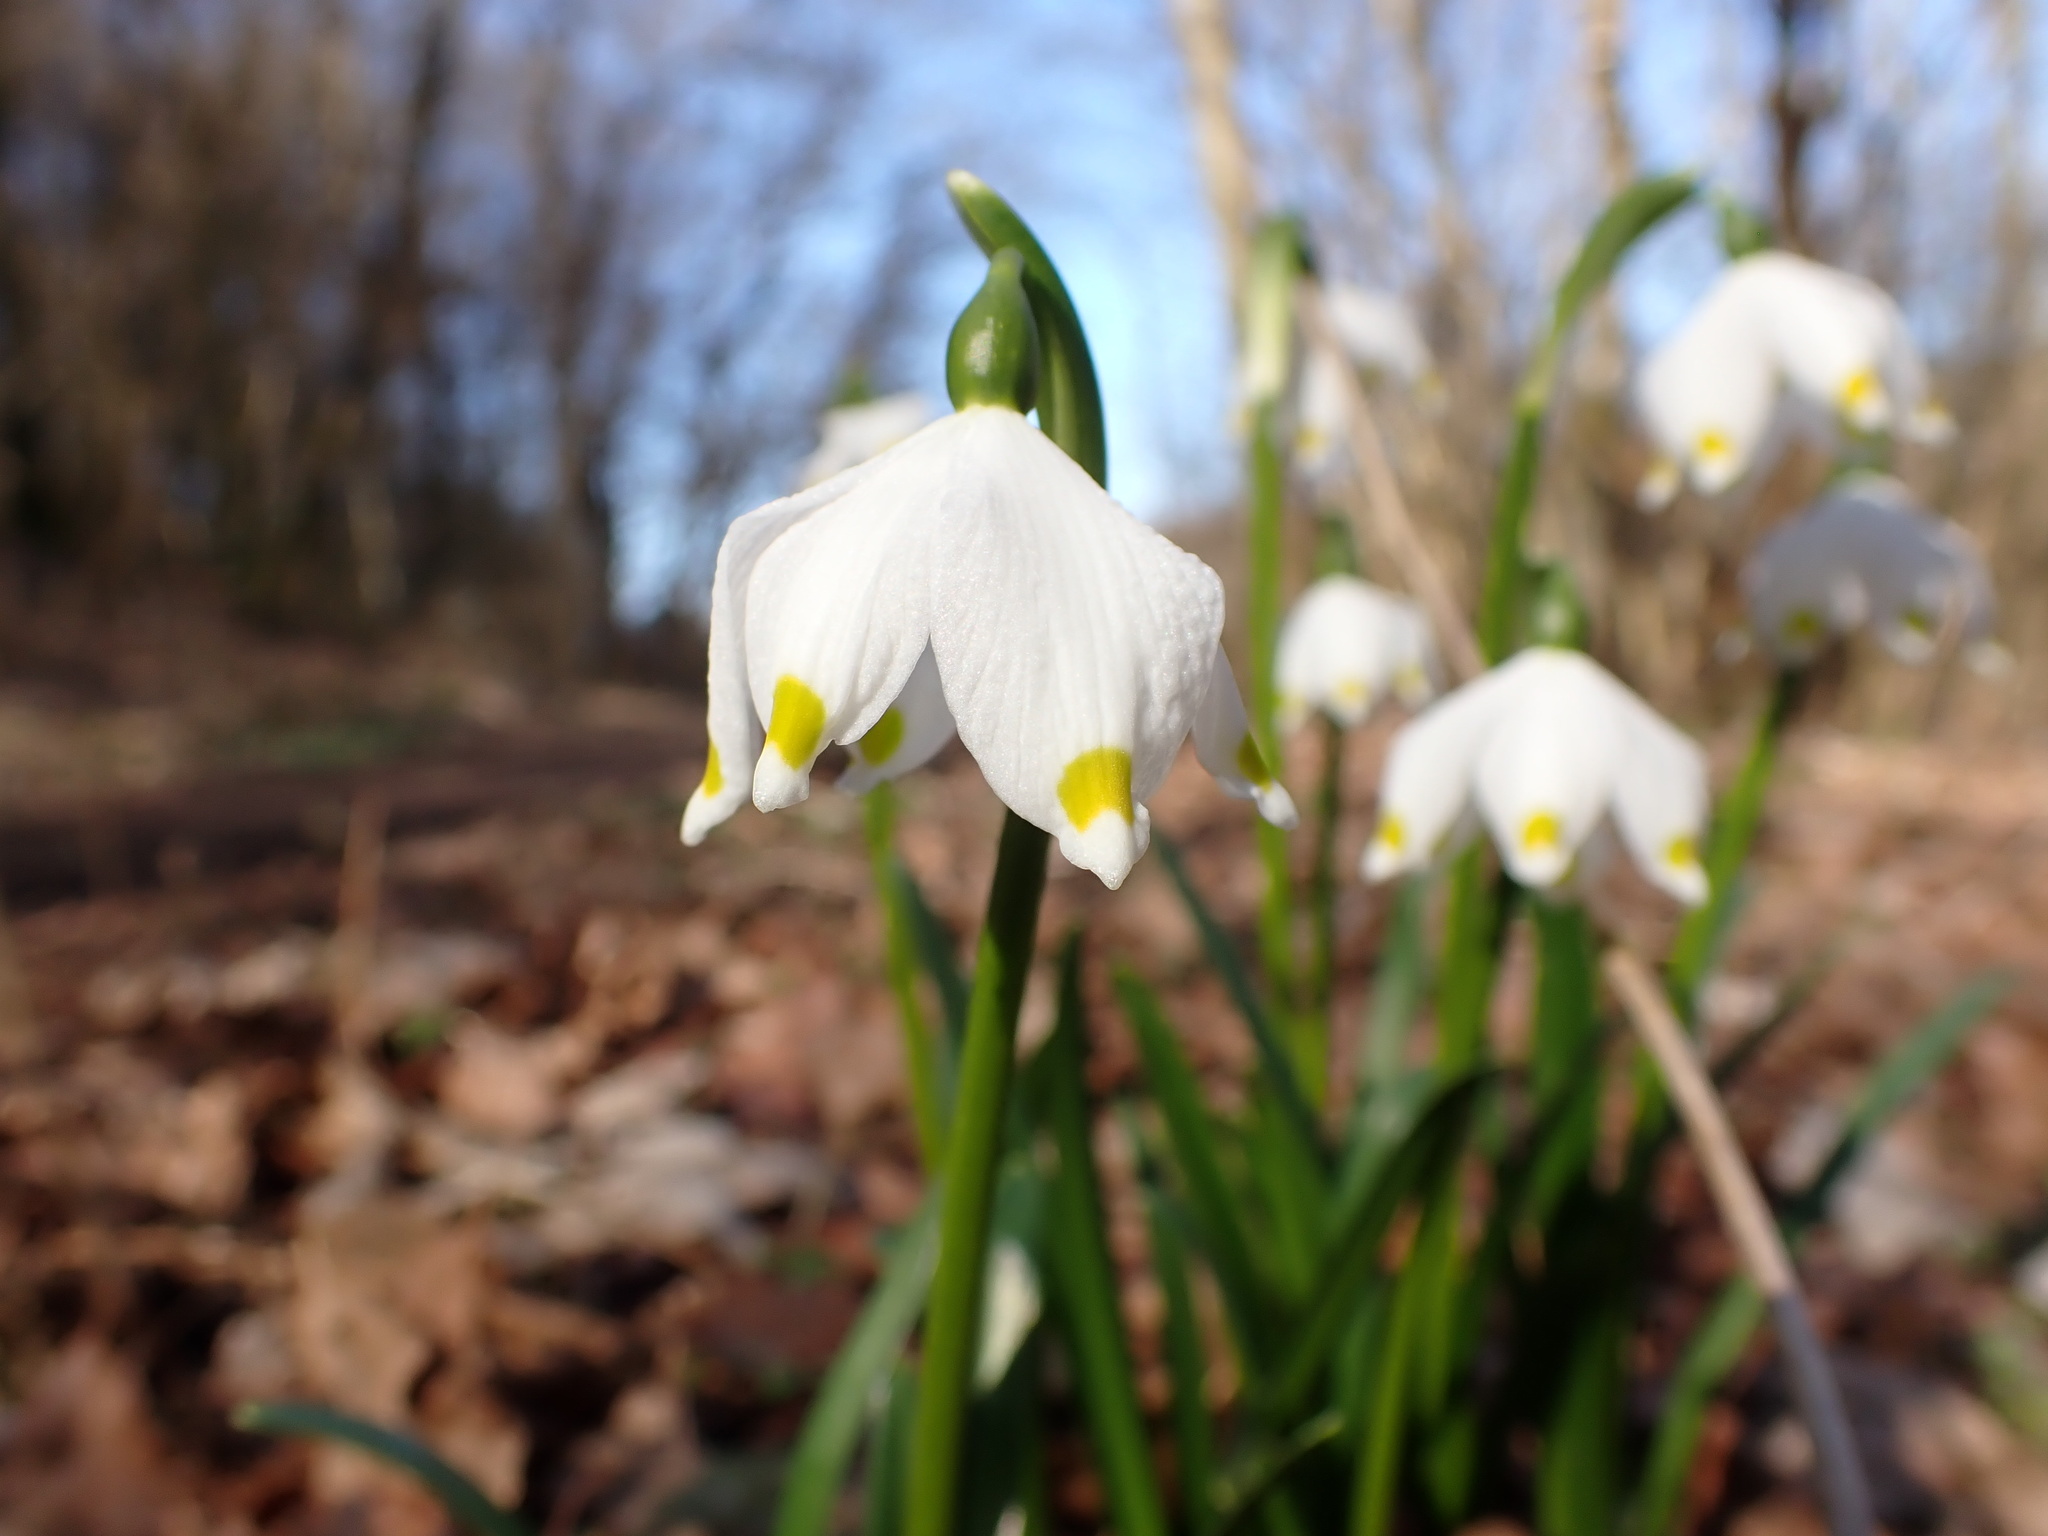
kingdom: Plantae
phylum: Tracheophyta
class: Liliopsida
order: Asparagales
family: Amaryllidaceae
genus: Leucojum
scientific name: Leucojum vernum
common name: Spring snowflake
